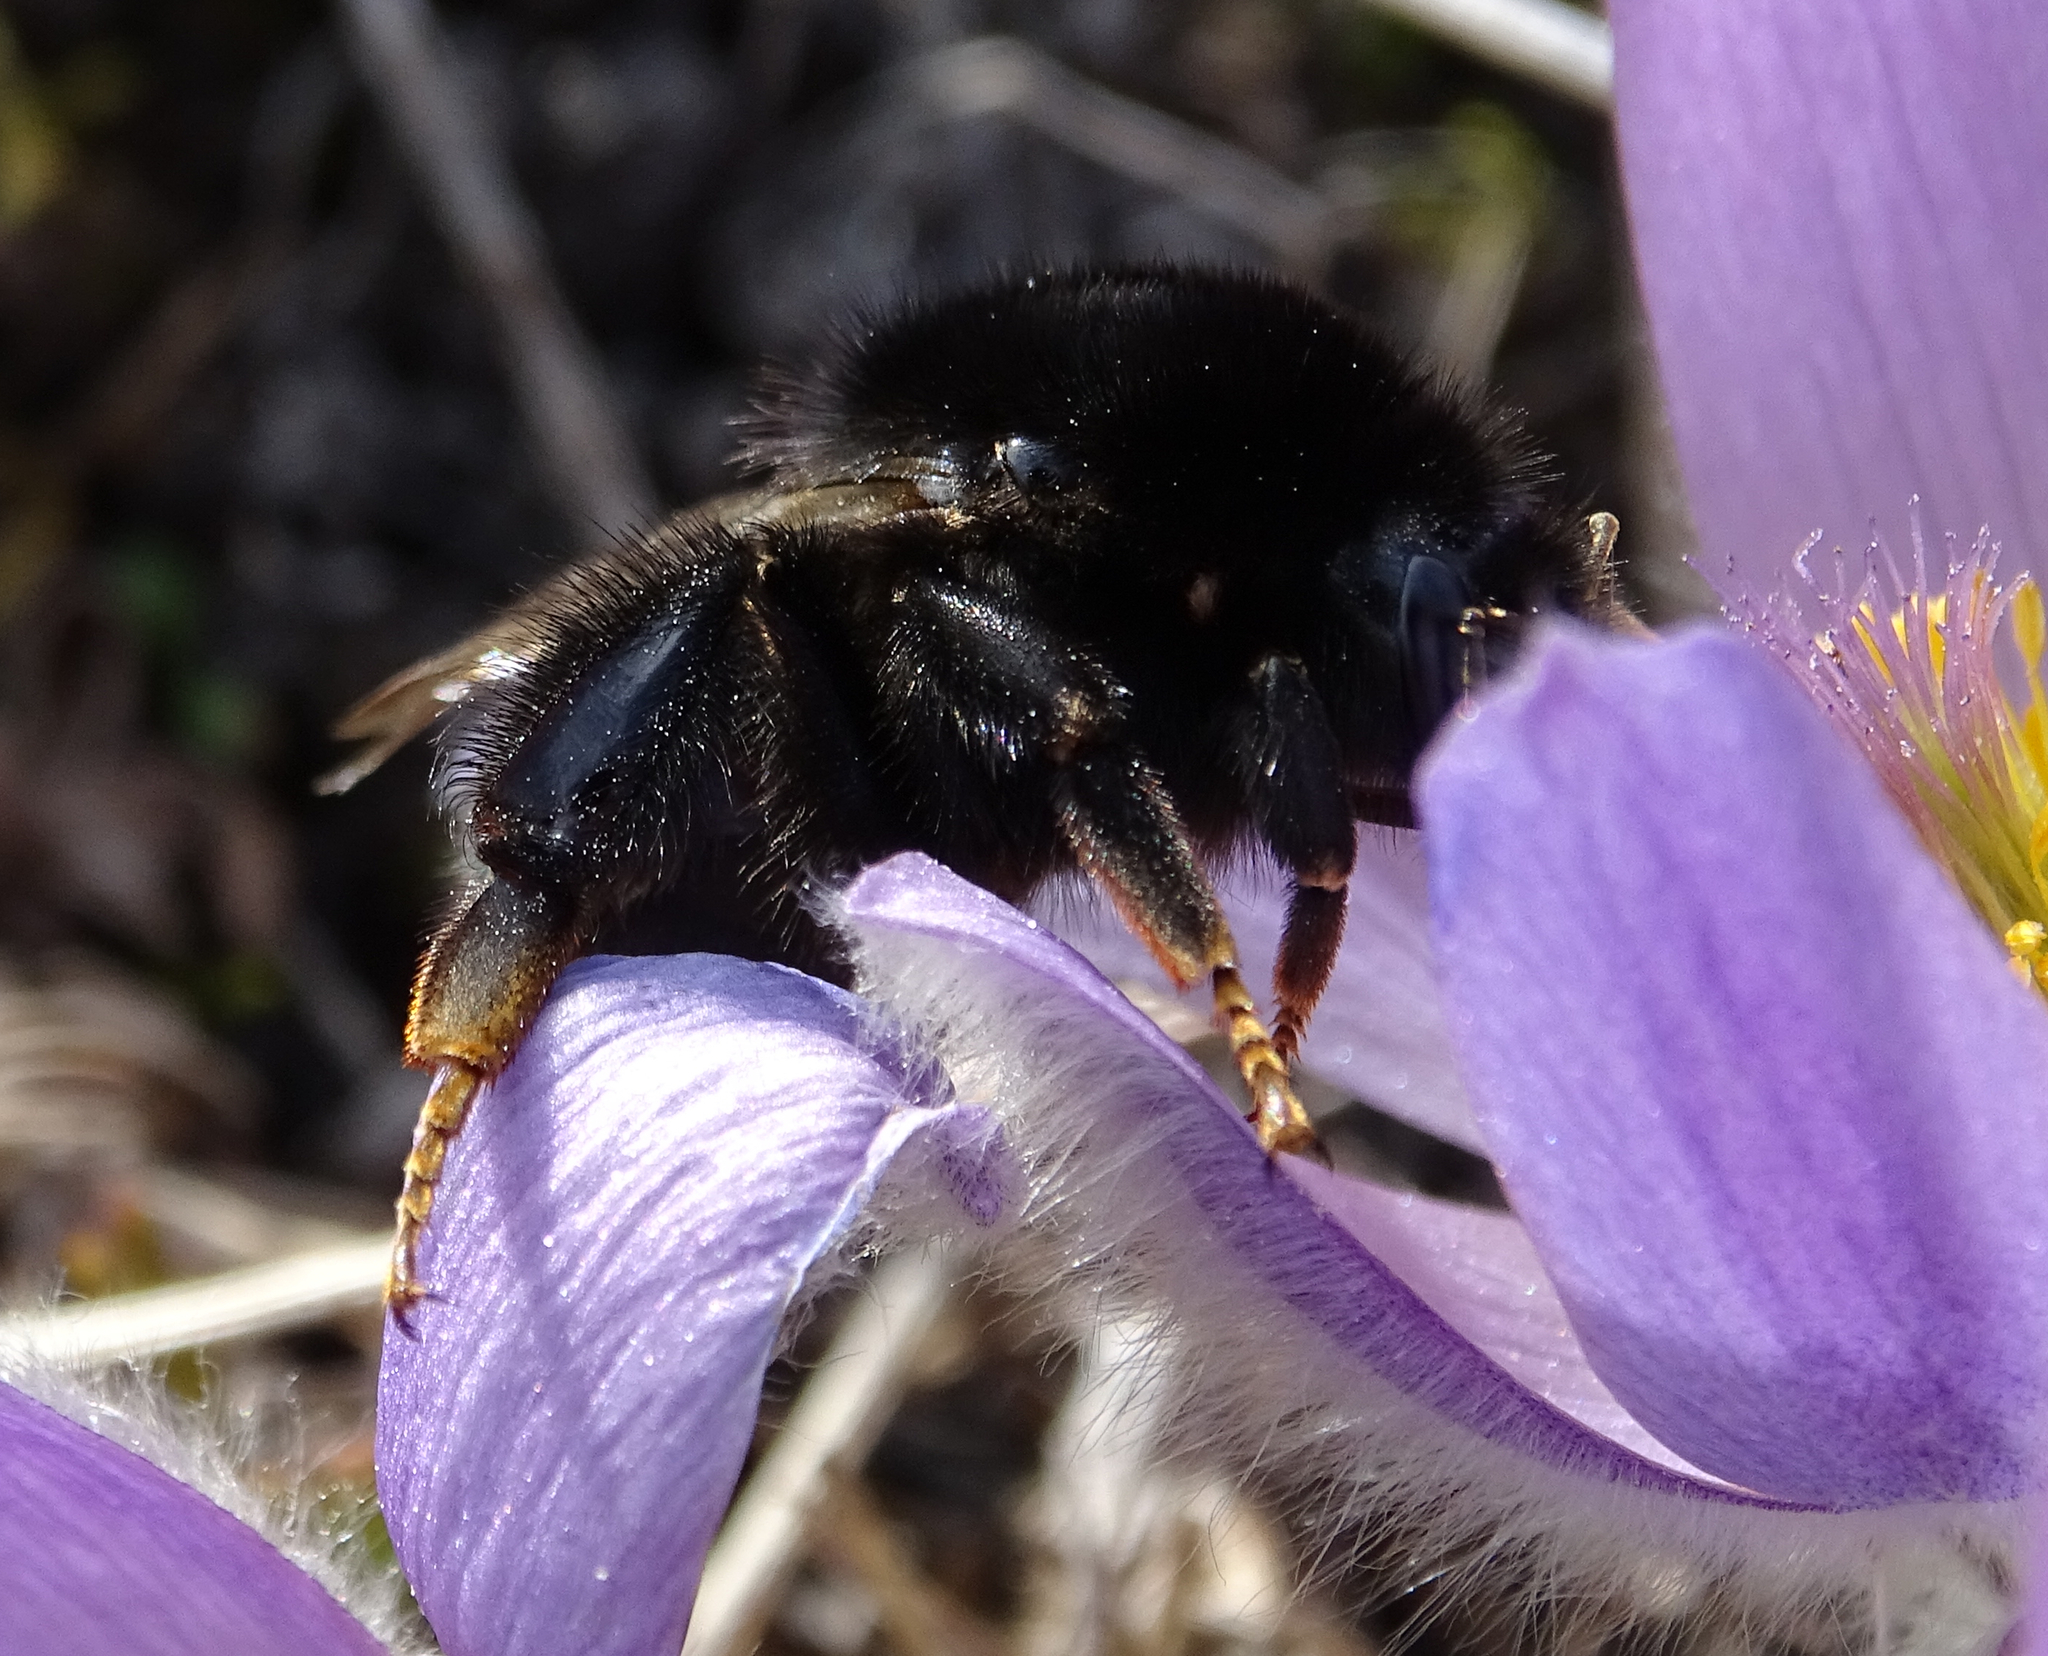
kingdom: Animalia
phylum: Arthropoda
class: Insecta
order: Hymenoptera
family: Apidae
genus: Bombus
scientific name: Bombus lapidarius
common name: Large red-tailed humble-bee
